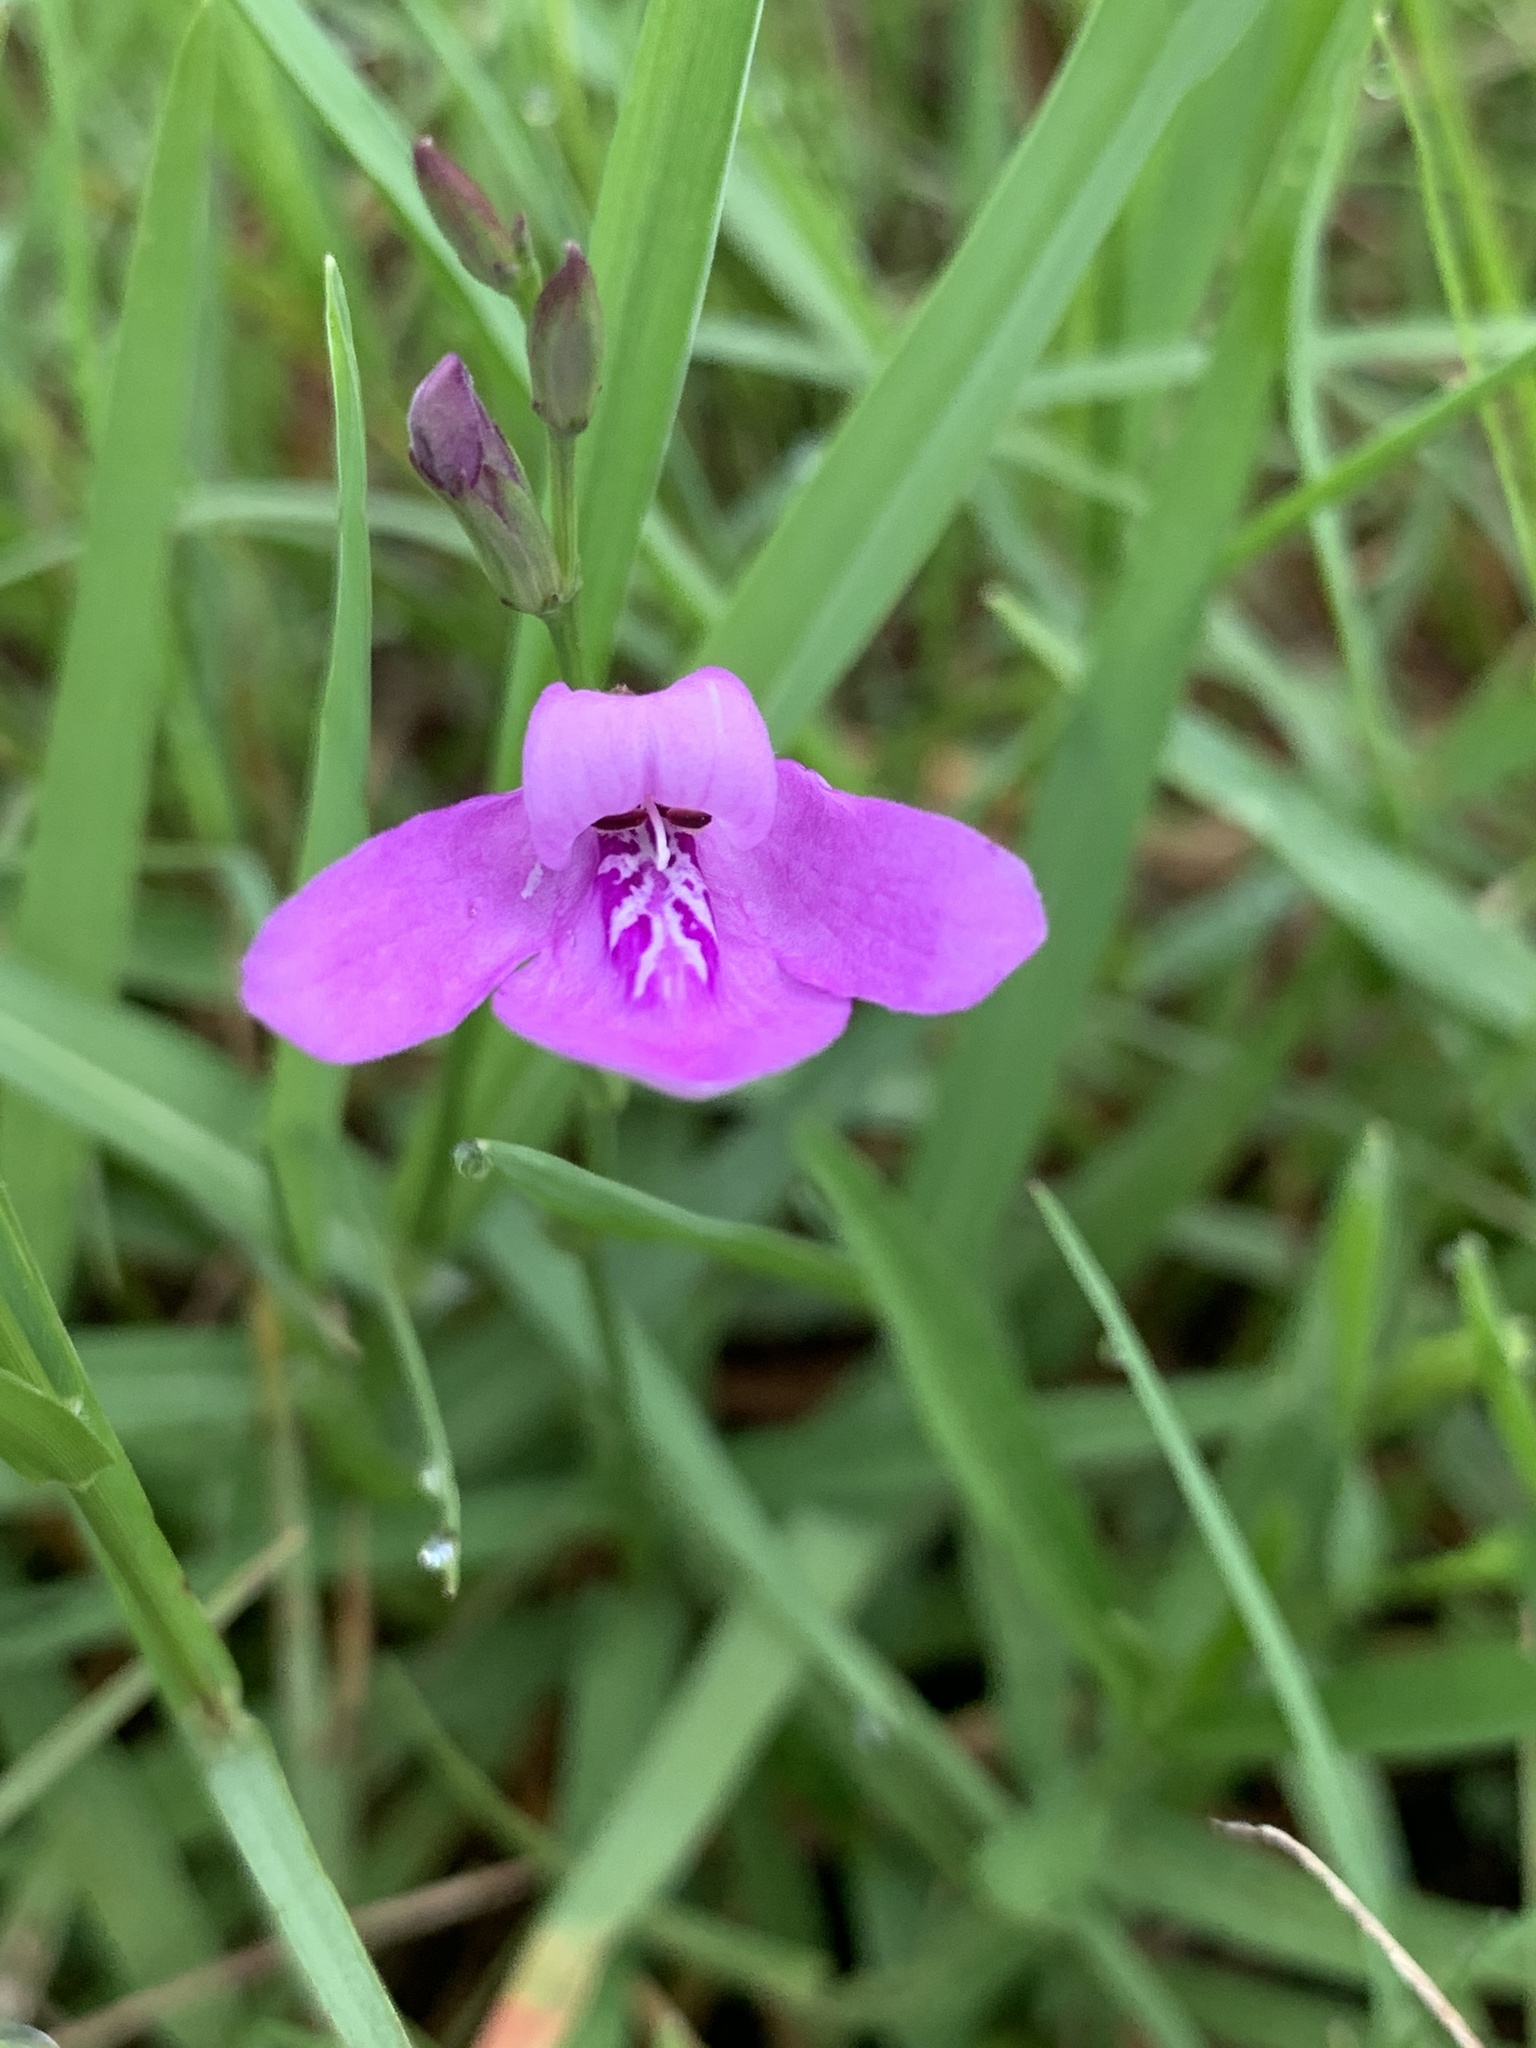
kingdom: Plantae
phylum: Tracheophyta
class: Magnoliopsida
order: Lamiales
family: Acanthaceae
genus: Dianthera
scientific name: Dianthera angusta
